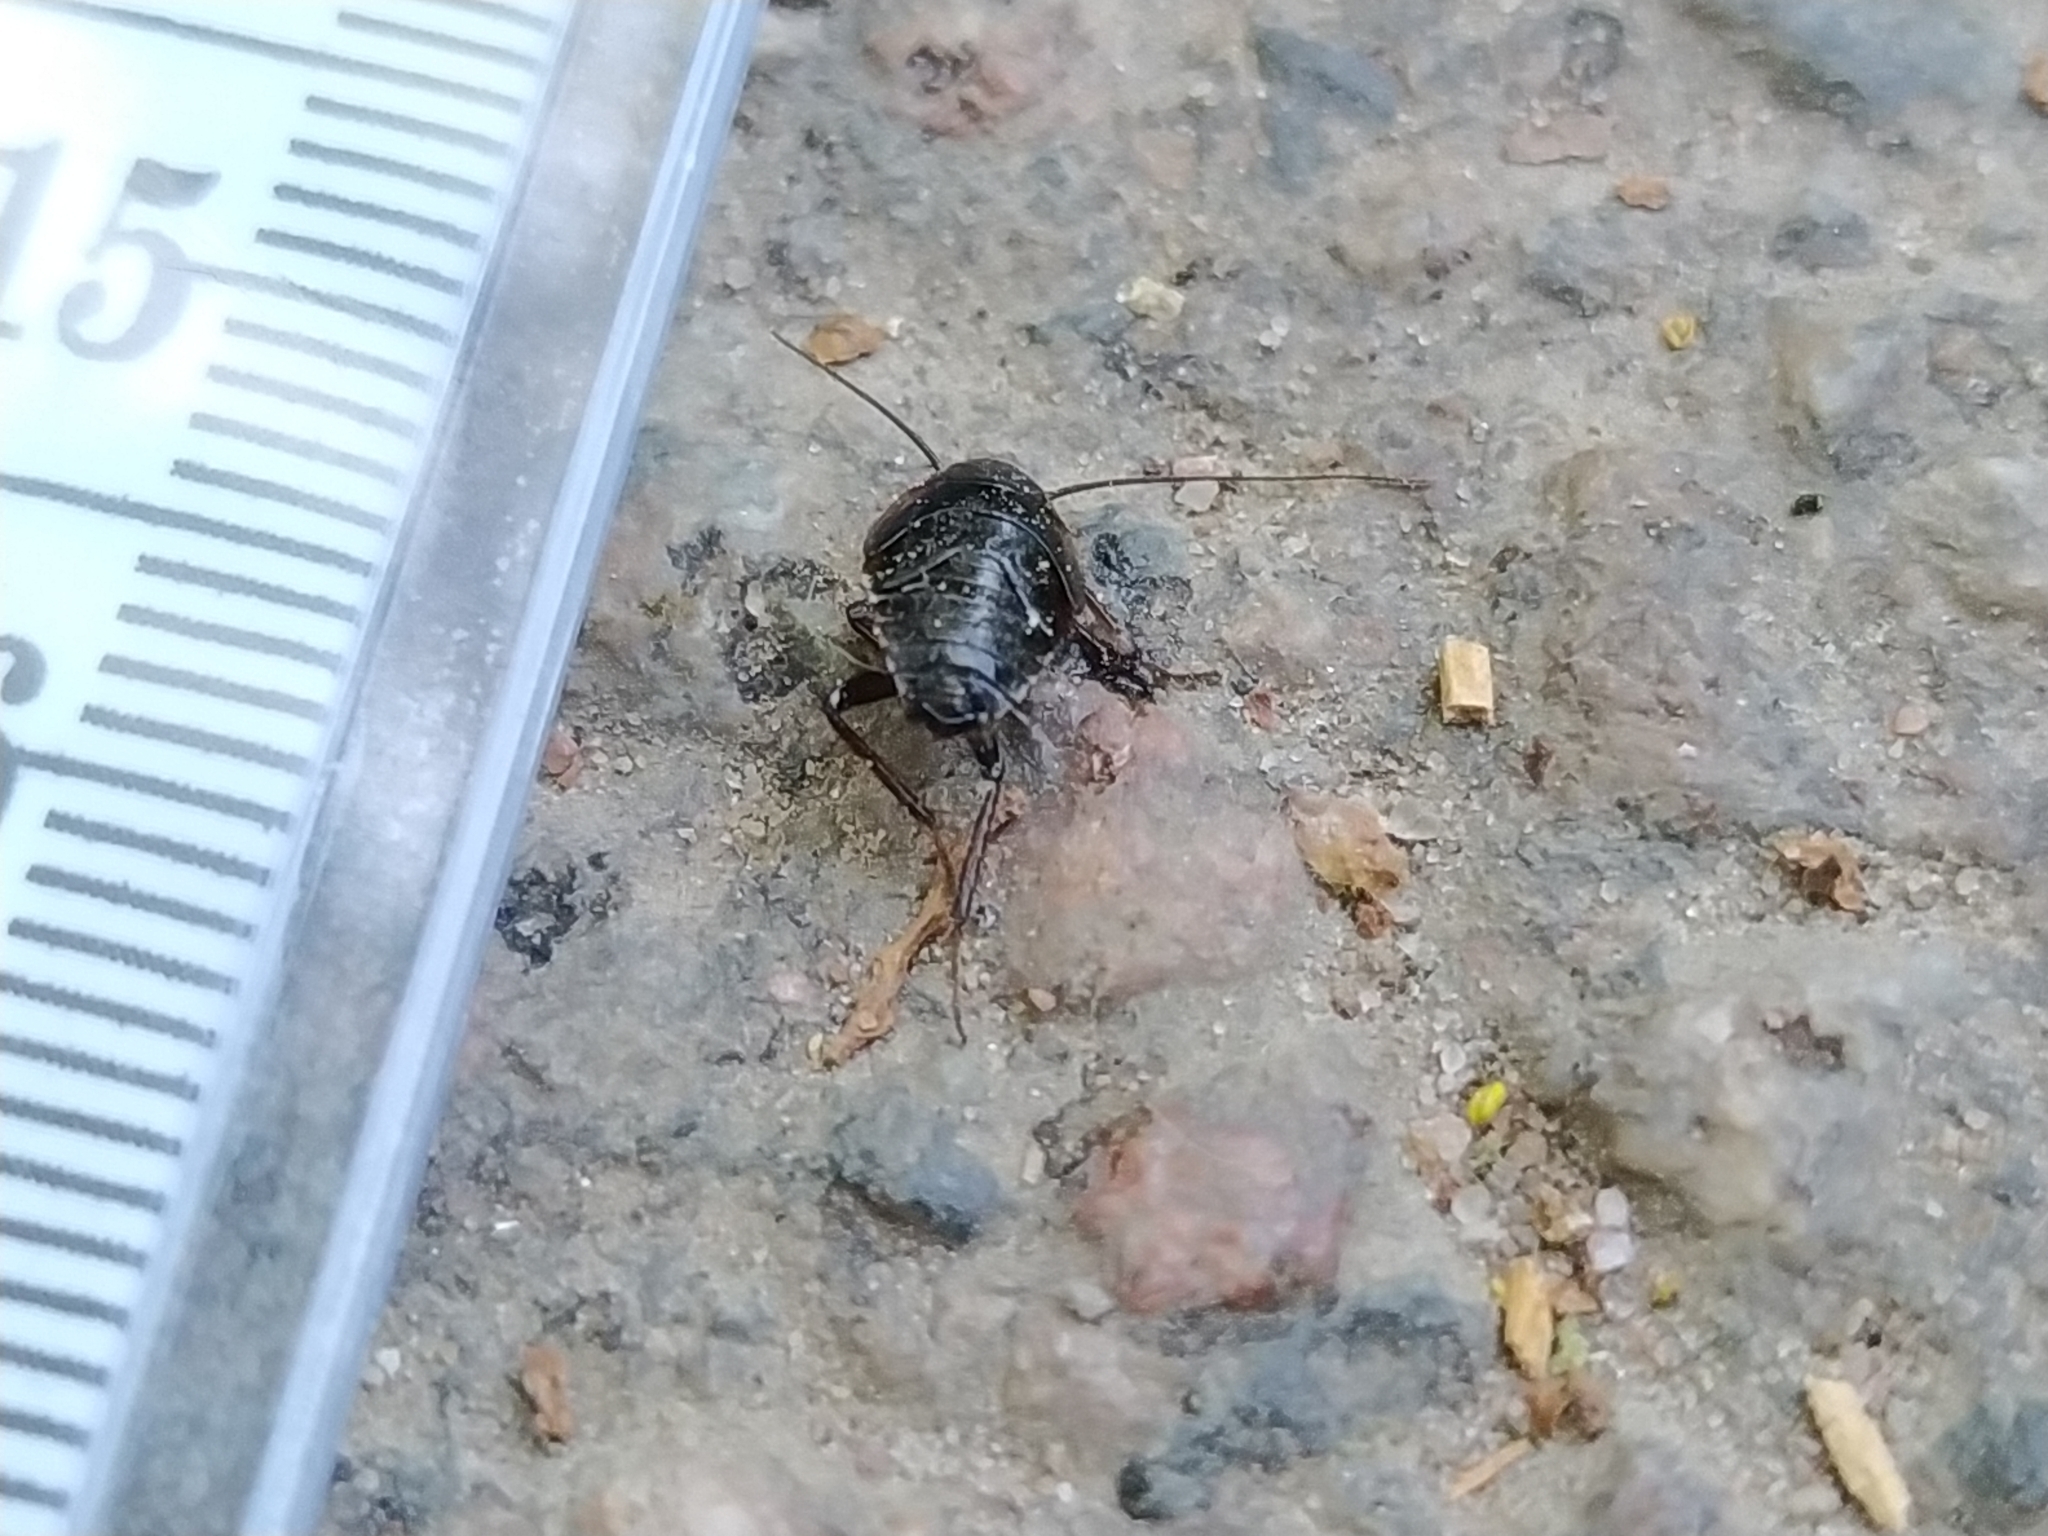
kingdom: Animalia
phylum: Arthropoda
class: Insecta
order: Blattodea
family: Ectobiidae
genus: Ectobius
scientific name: Ectobius sylvestris
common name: Forest cockroach
